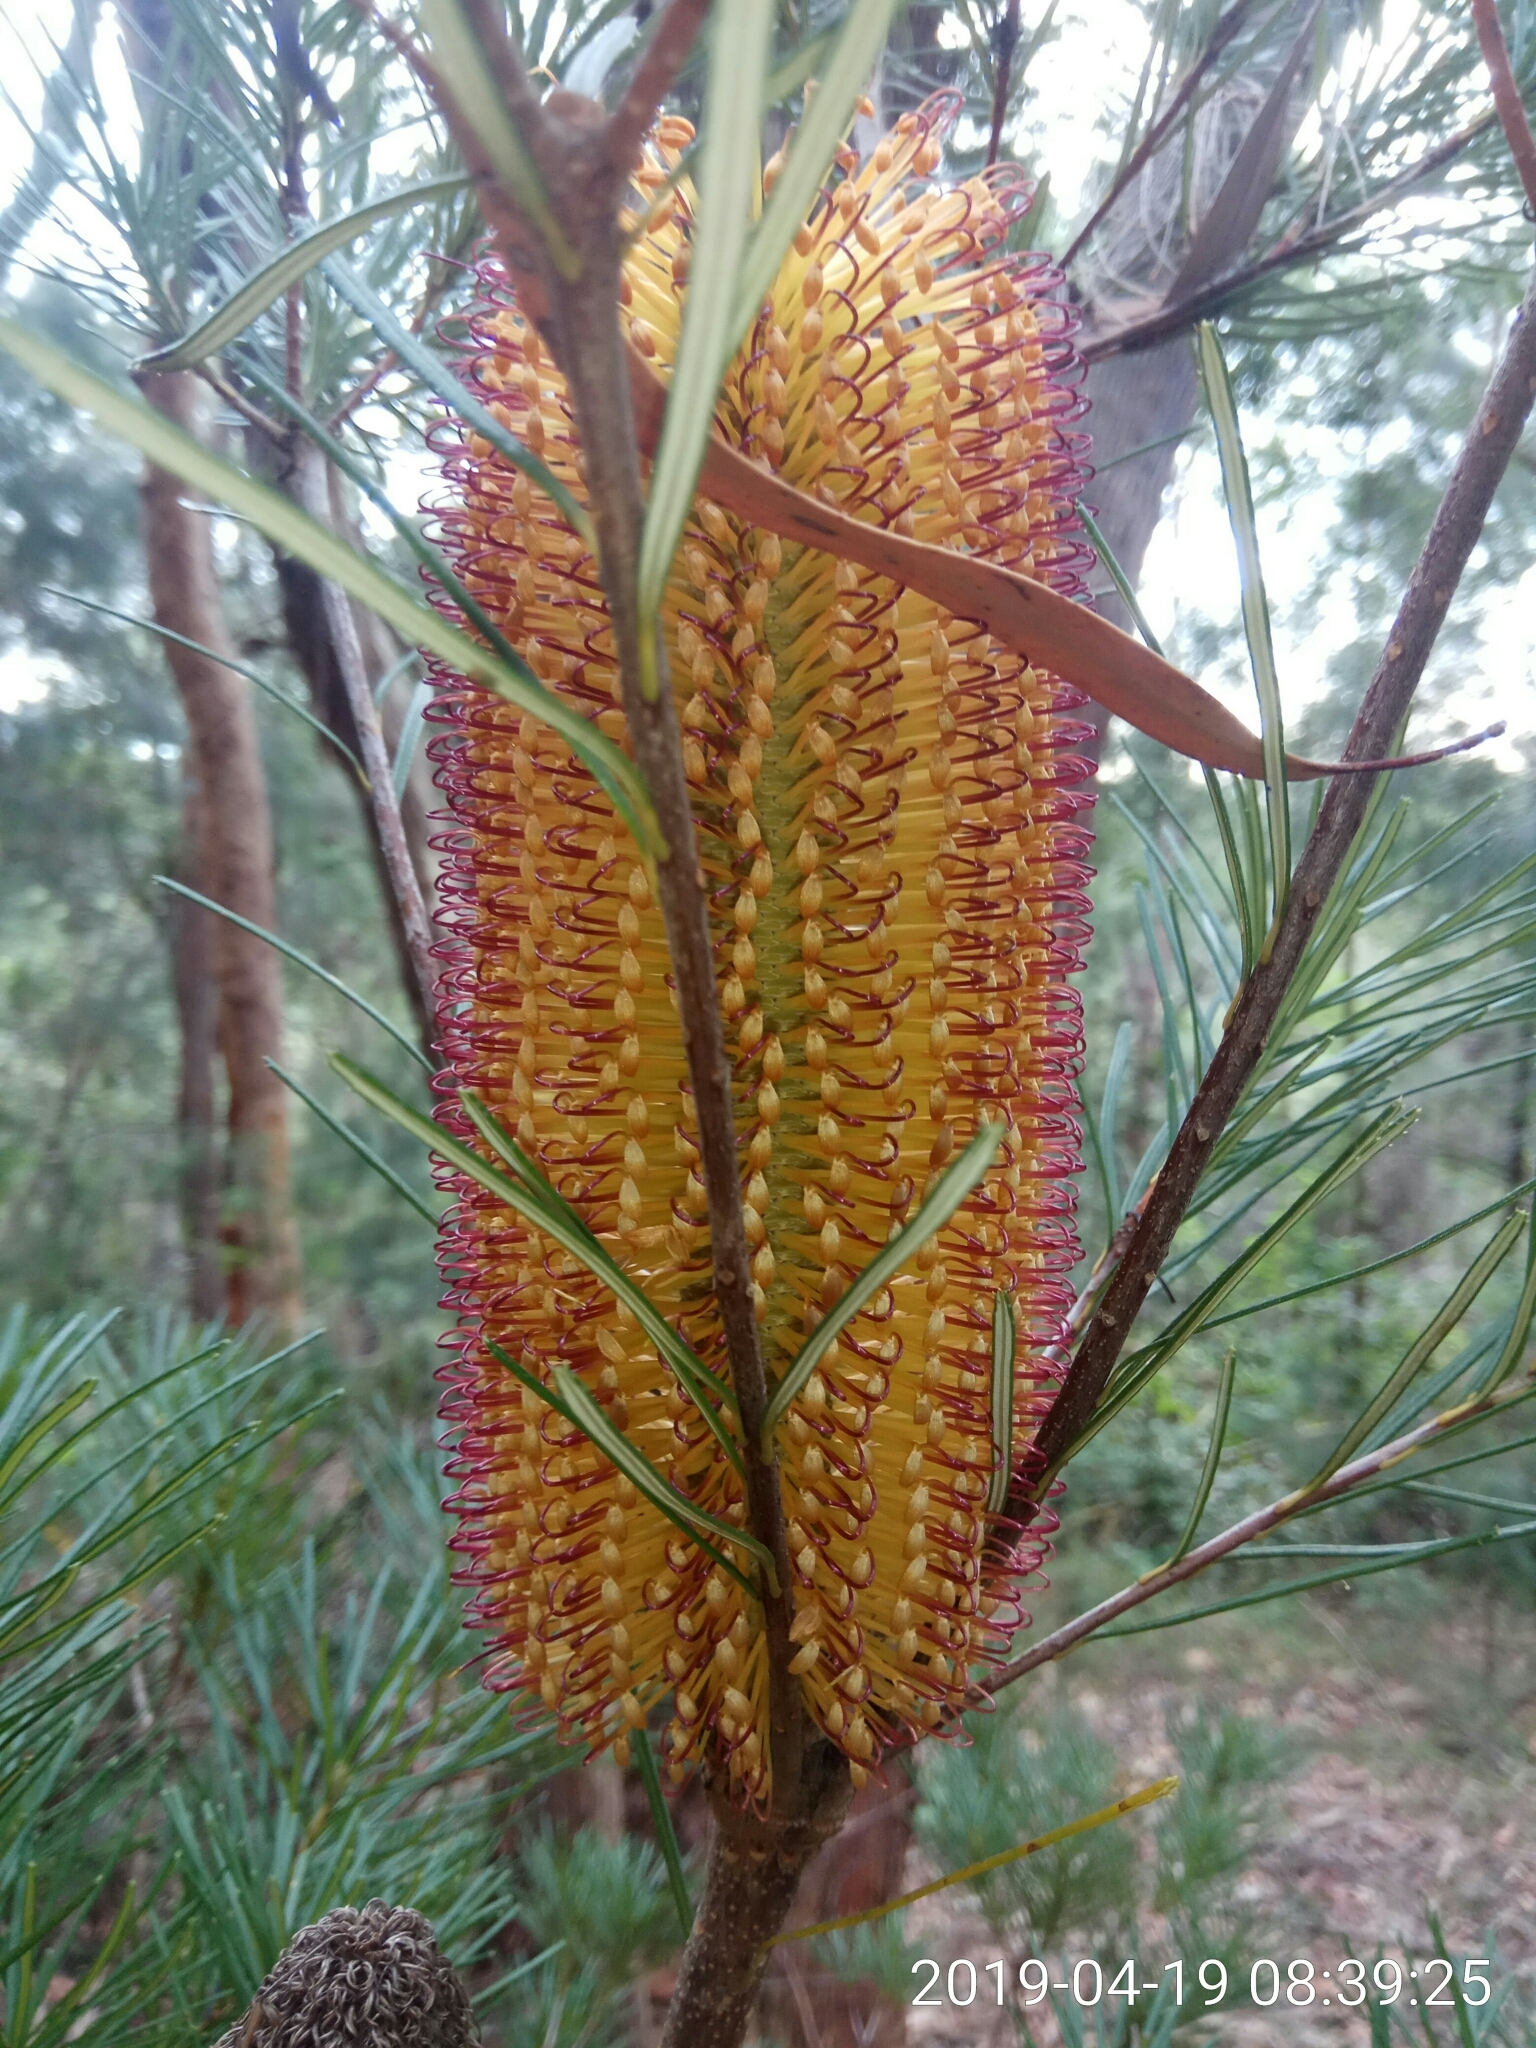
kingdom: Plantae
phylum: Tracheophyta
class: Magnoliopsida
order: Proteales
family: Proteaceae
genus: Banksia
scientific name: Banksia spinulosa
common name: Hairpin banksia
